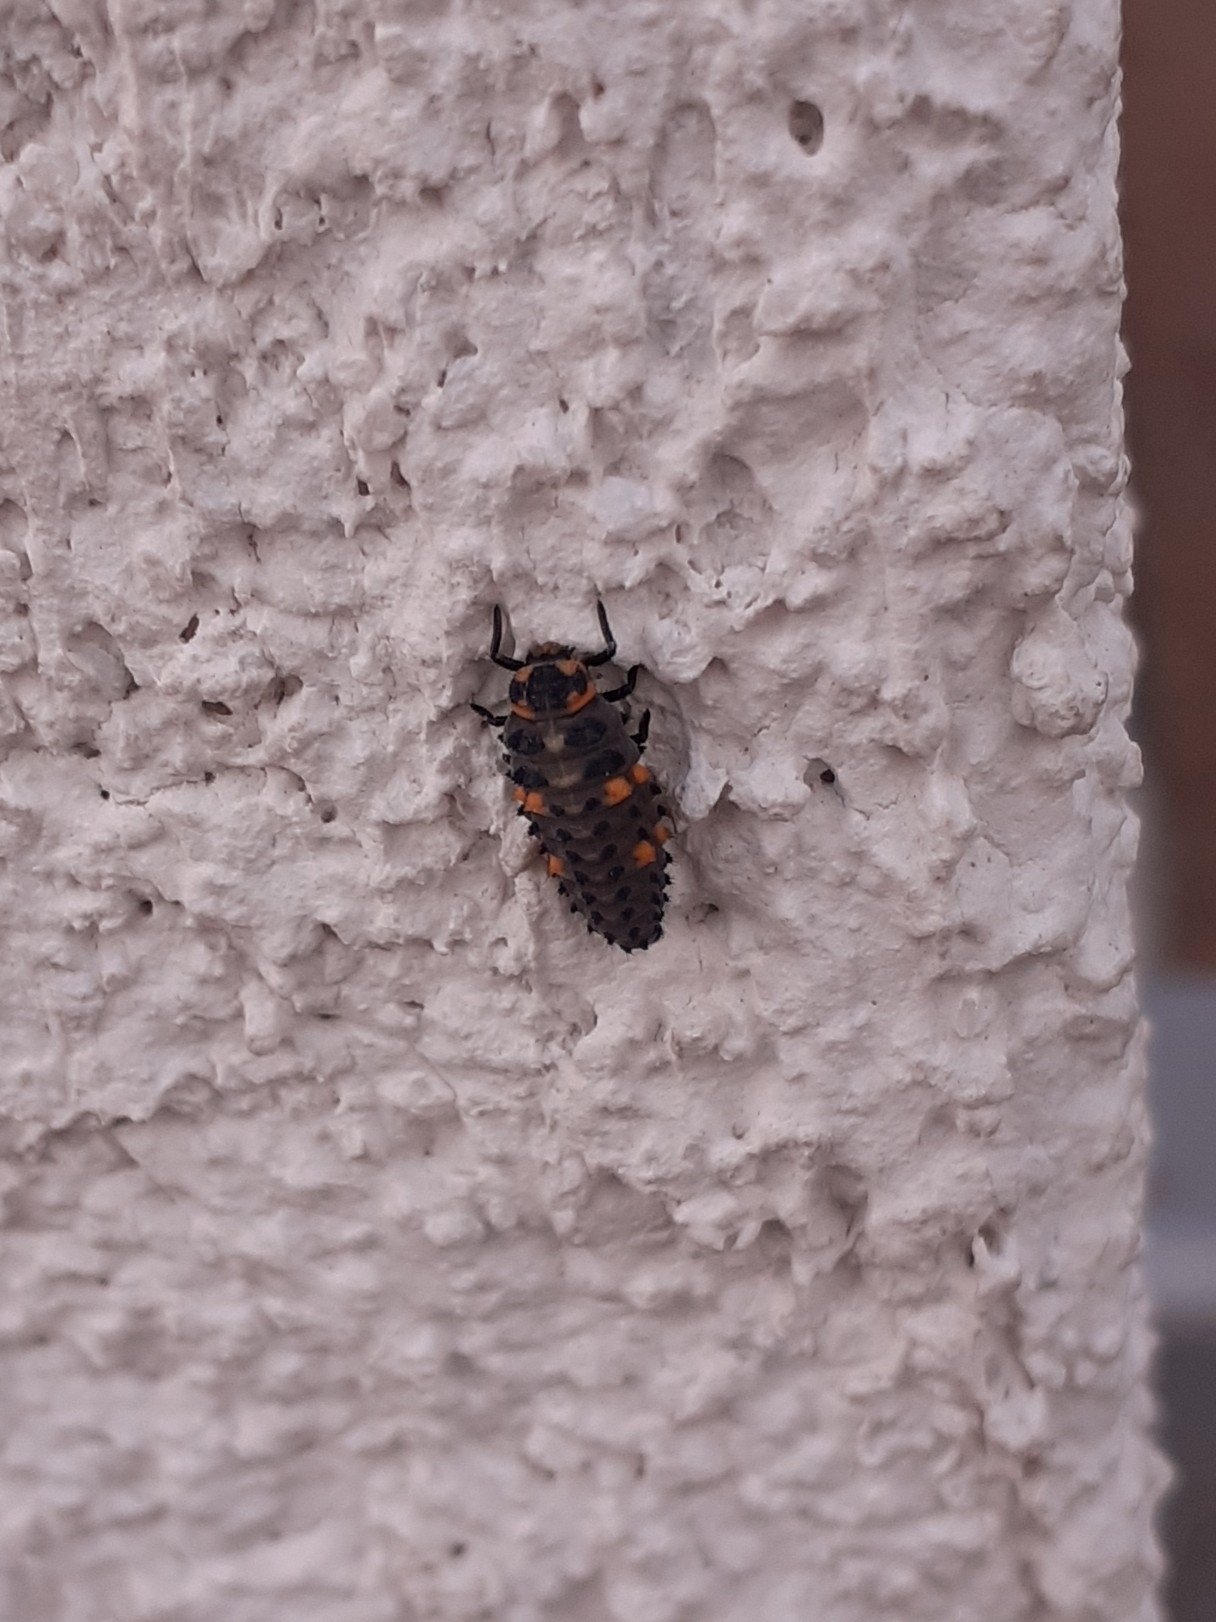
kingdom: Animalia
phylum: Arthropoda
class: Insecta
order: Coleoptera
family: Coccinellidae
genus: Coccinella
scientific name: Coccinella septempunctata
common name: Sevenspotted lady beetle
